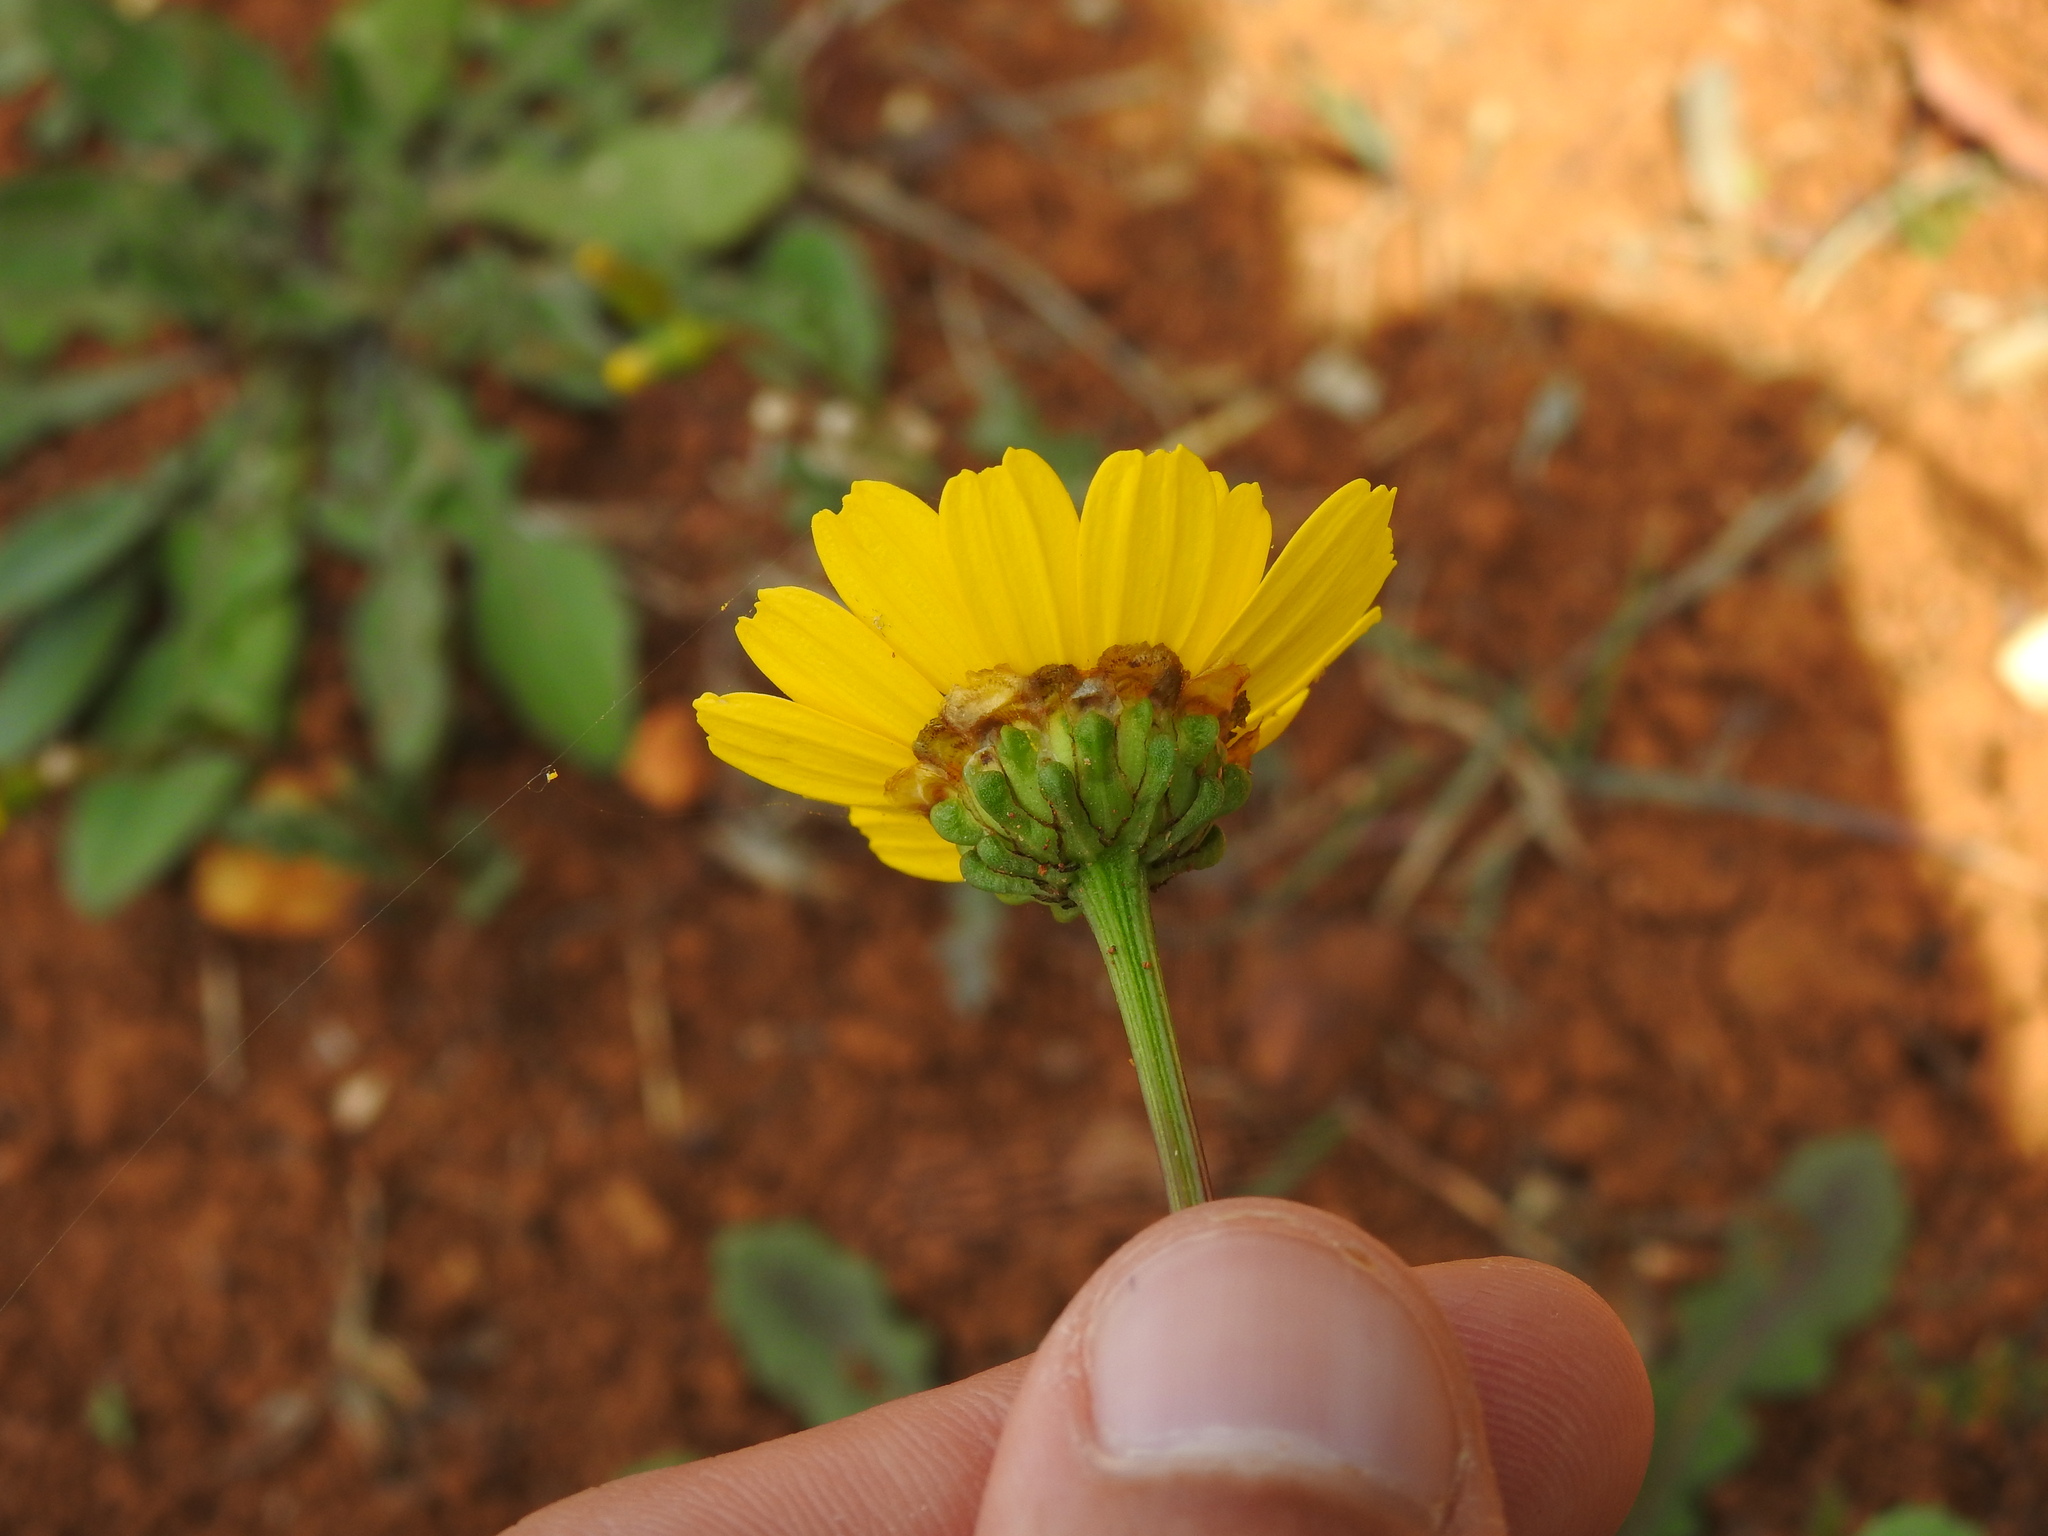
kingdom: Plantae
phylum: Tracheophyta
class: Magnoliopsida
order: Asterales
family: Asteraceae
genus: Glossopappus
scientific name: Glossopappus macrotus
